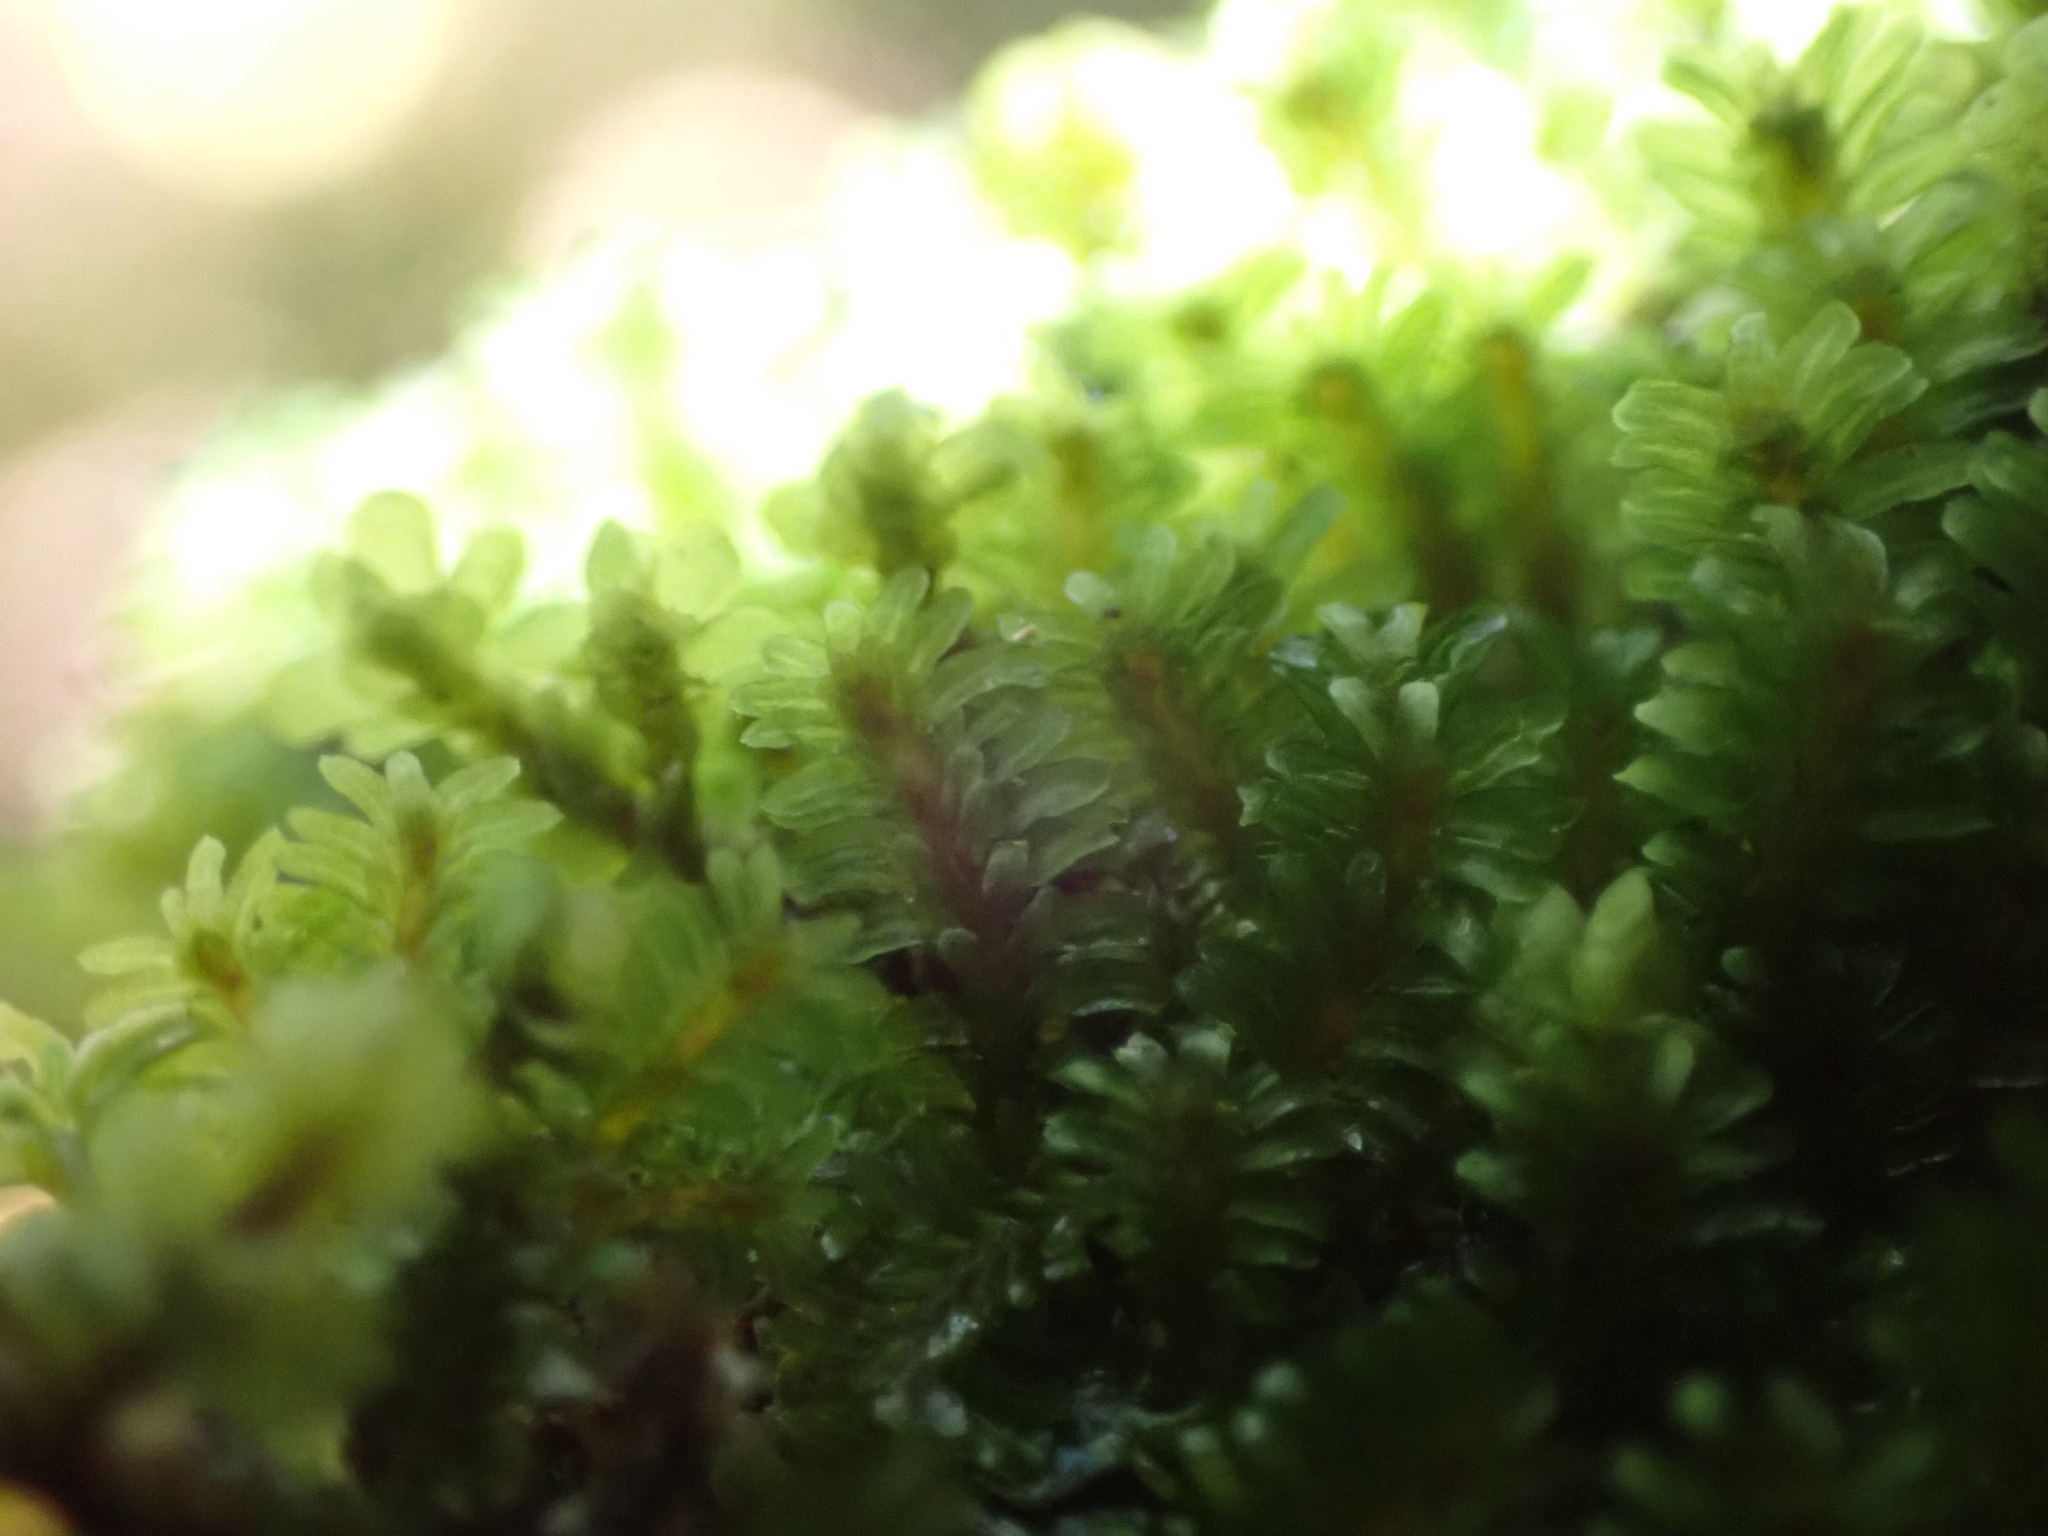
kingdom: Plantae
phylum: Marchantiophyta
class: Jungermanniopsida
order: Jungermanniales
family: Scapaniaceae
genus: Diplophyllum
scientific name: Diplophyllum albicans
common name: White earwort
